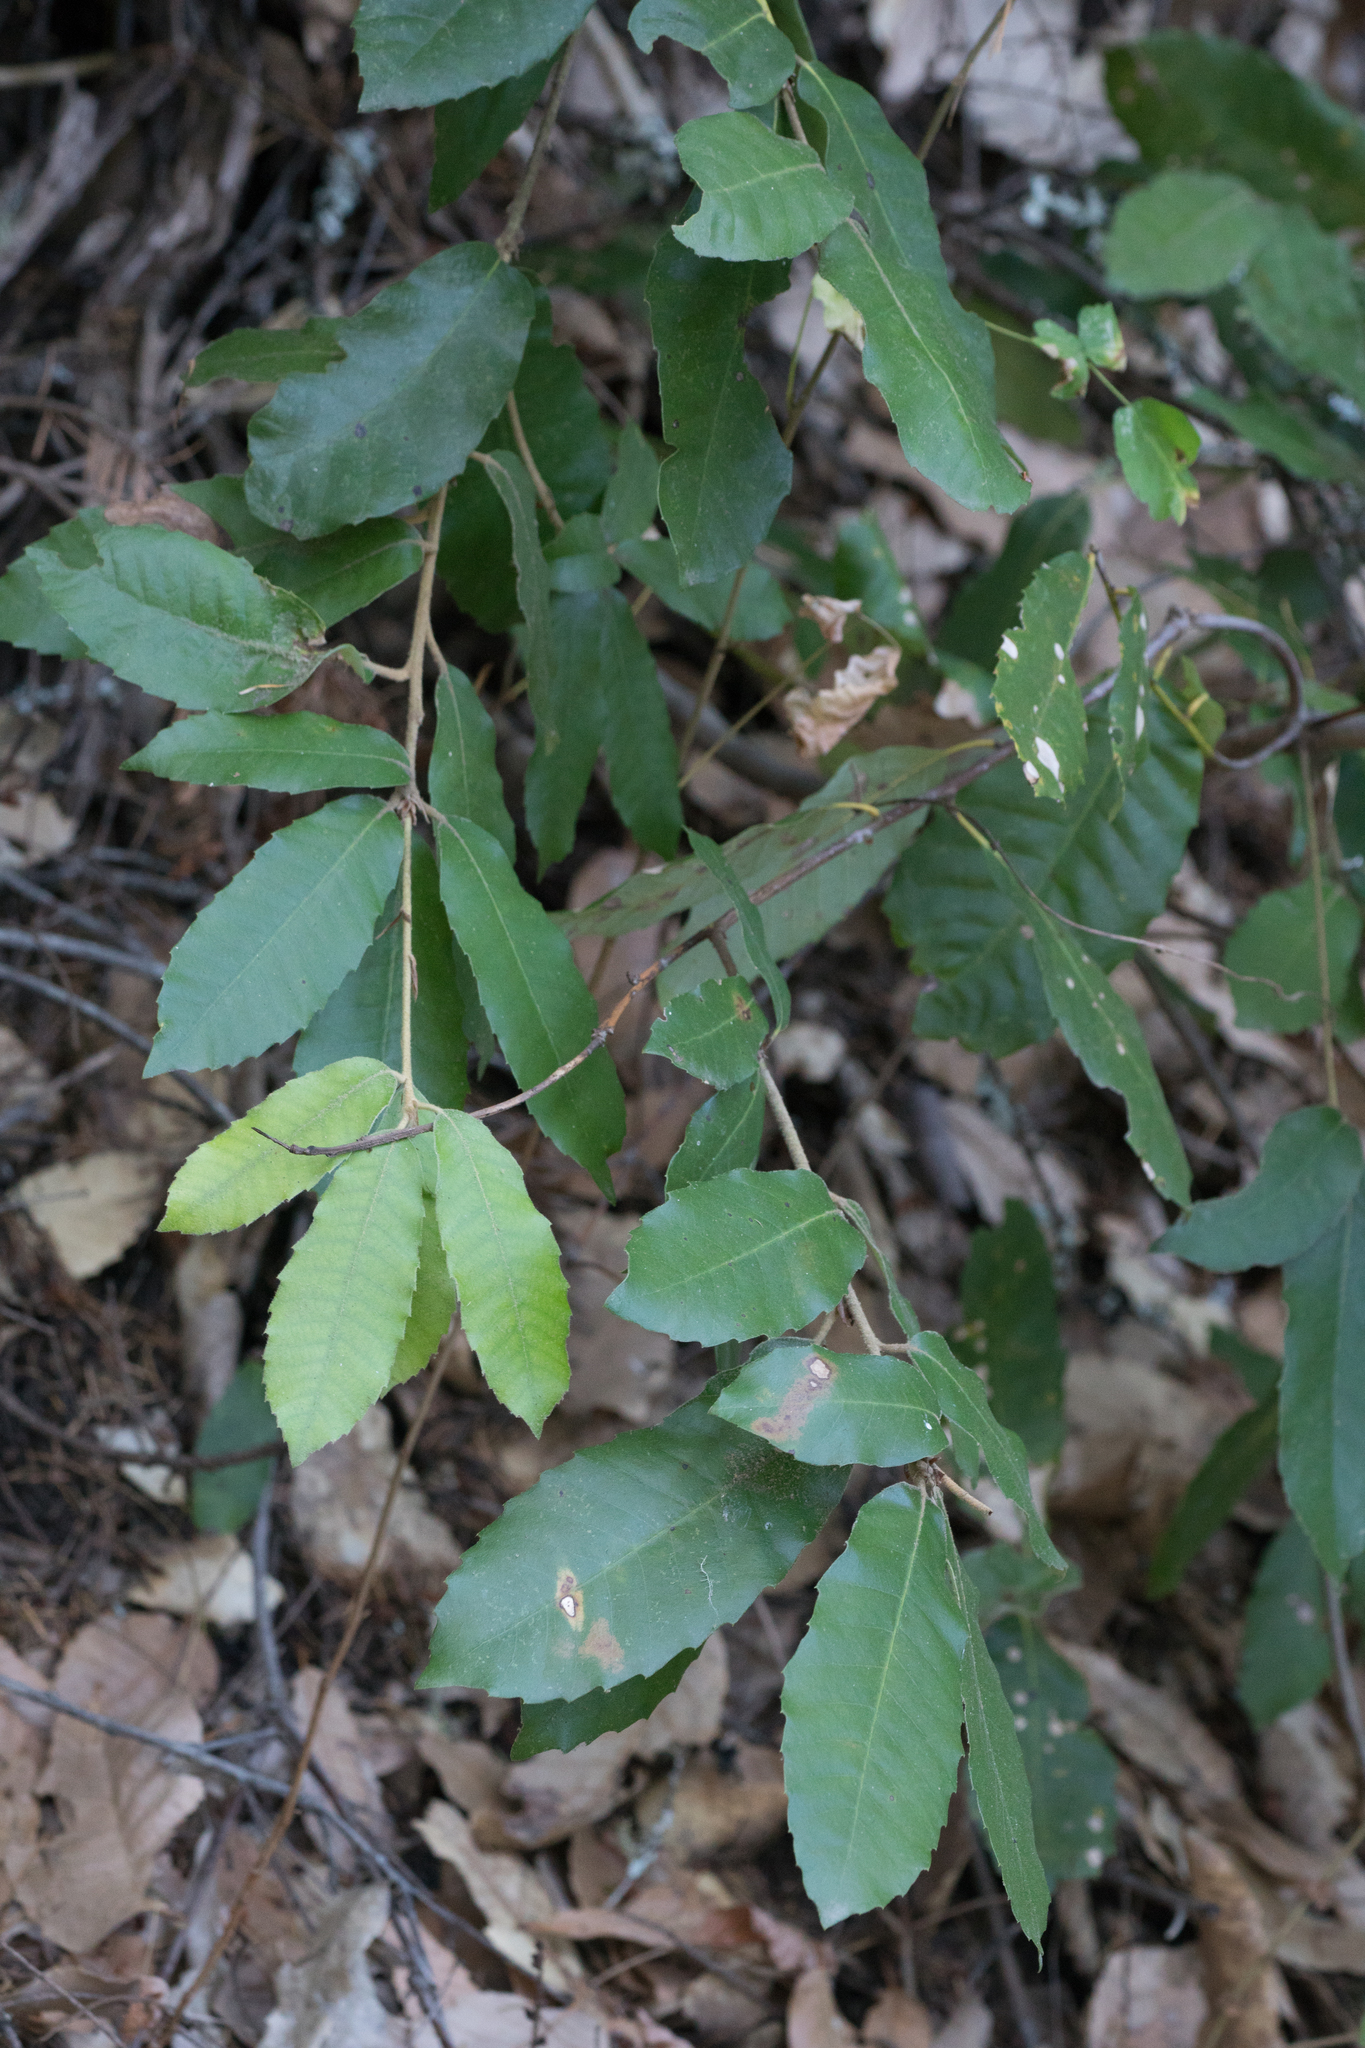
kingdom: Plantae
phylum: Tracheophyta
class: Magnoliopsida
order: Fagales
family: Fagaceae
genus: Notholithocarpus
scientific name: Notholithocarpus densiflorus
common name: Tan bark oak
